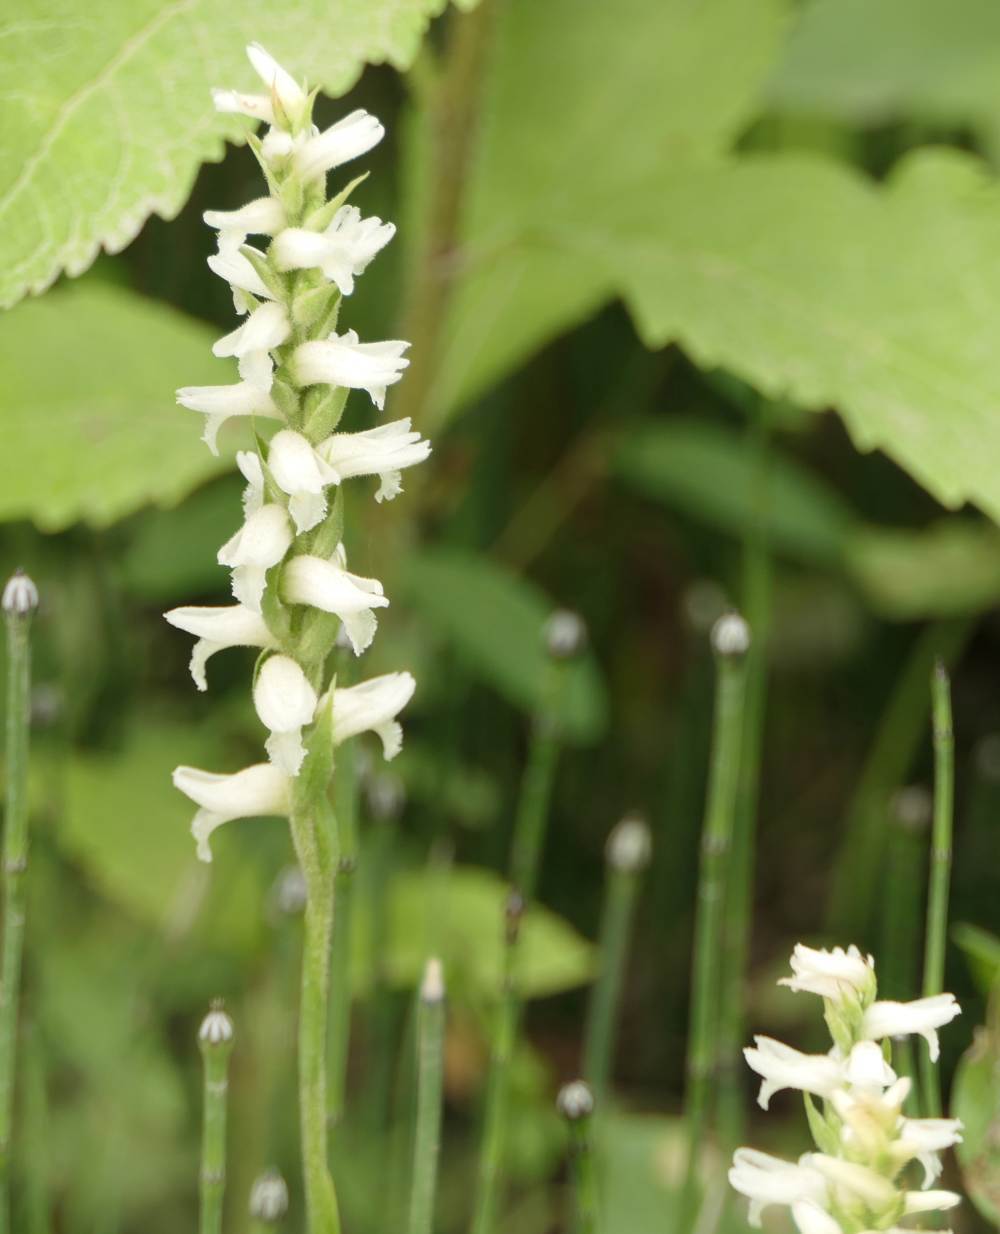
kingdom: Plantae
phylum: Tracheophyta
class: Liliopsida
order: Asparagales
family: Orchidaceae
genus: Spiranthes
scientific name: Spiranthes incurva
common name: Sphinx ladies'-tresses
